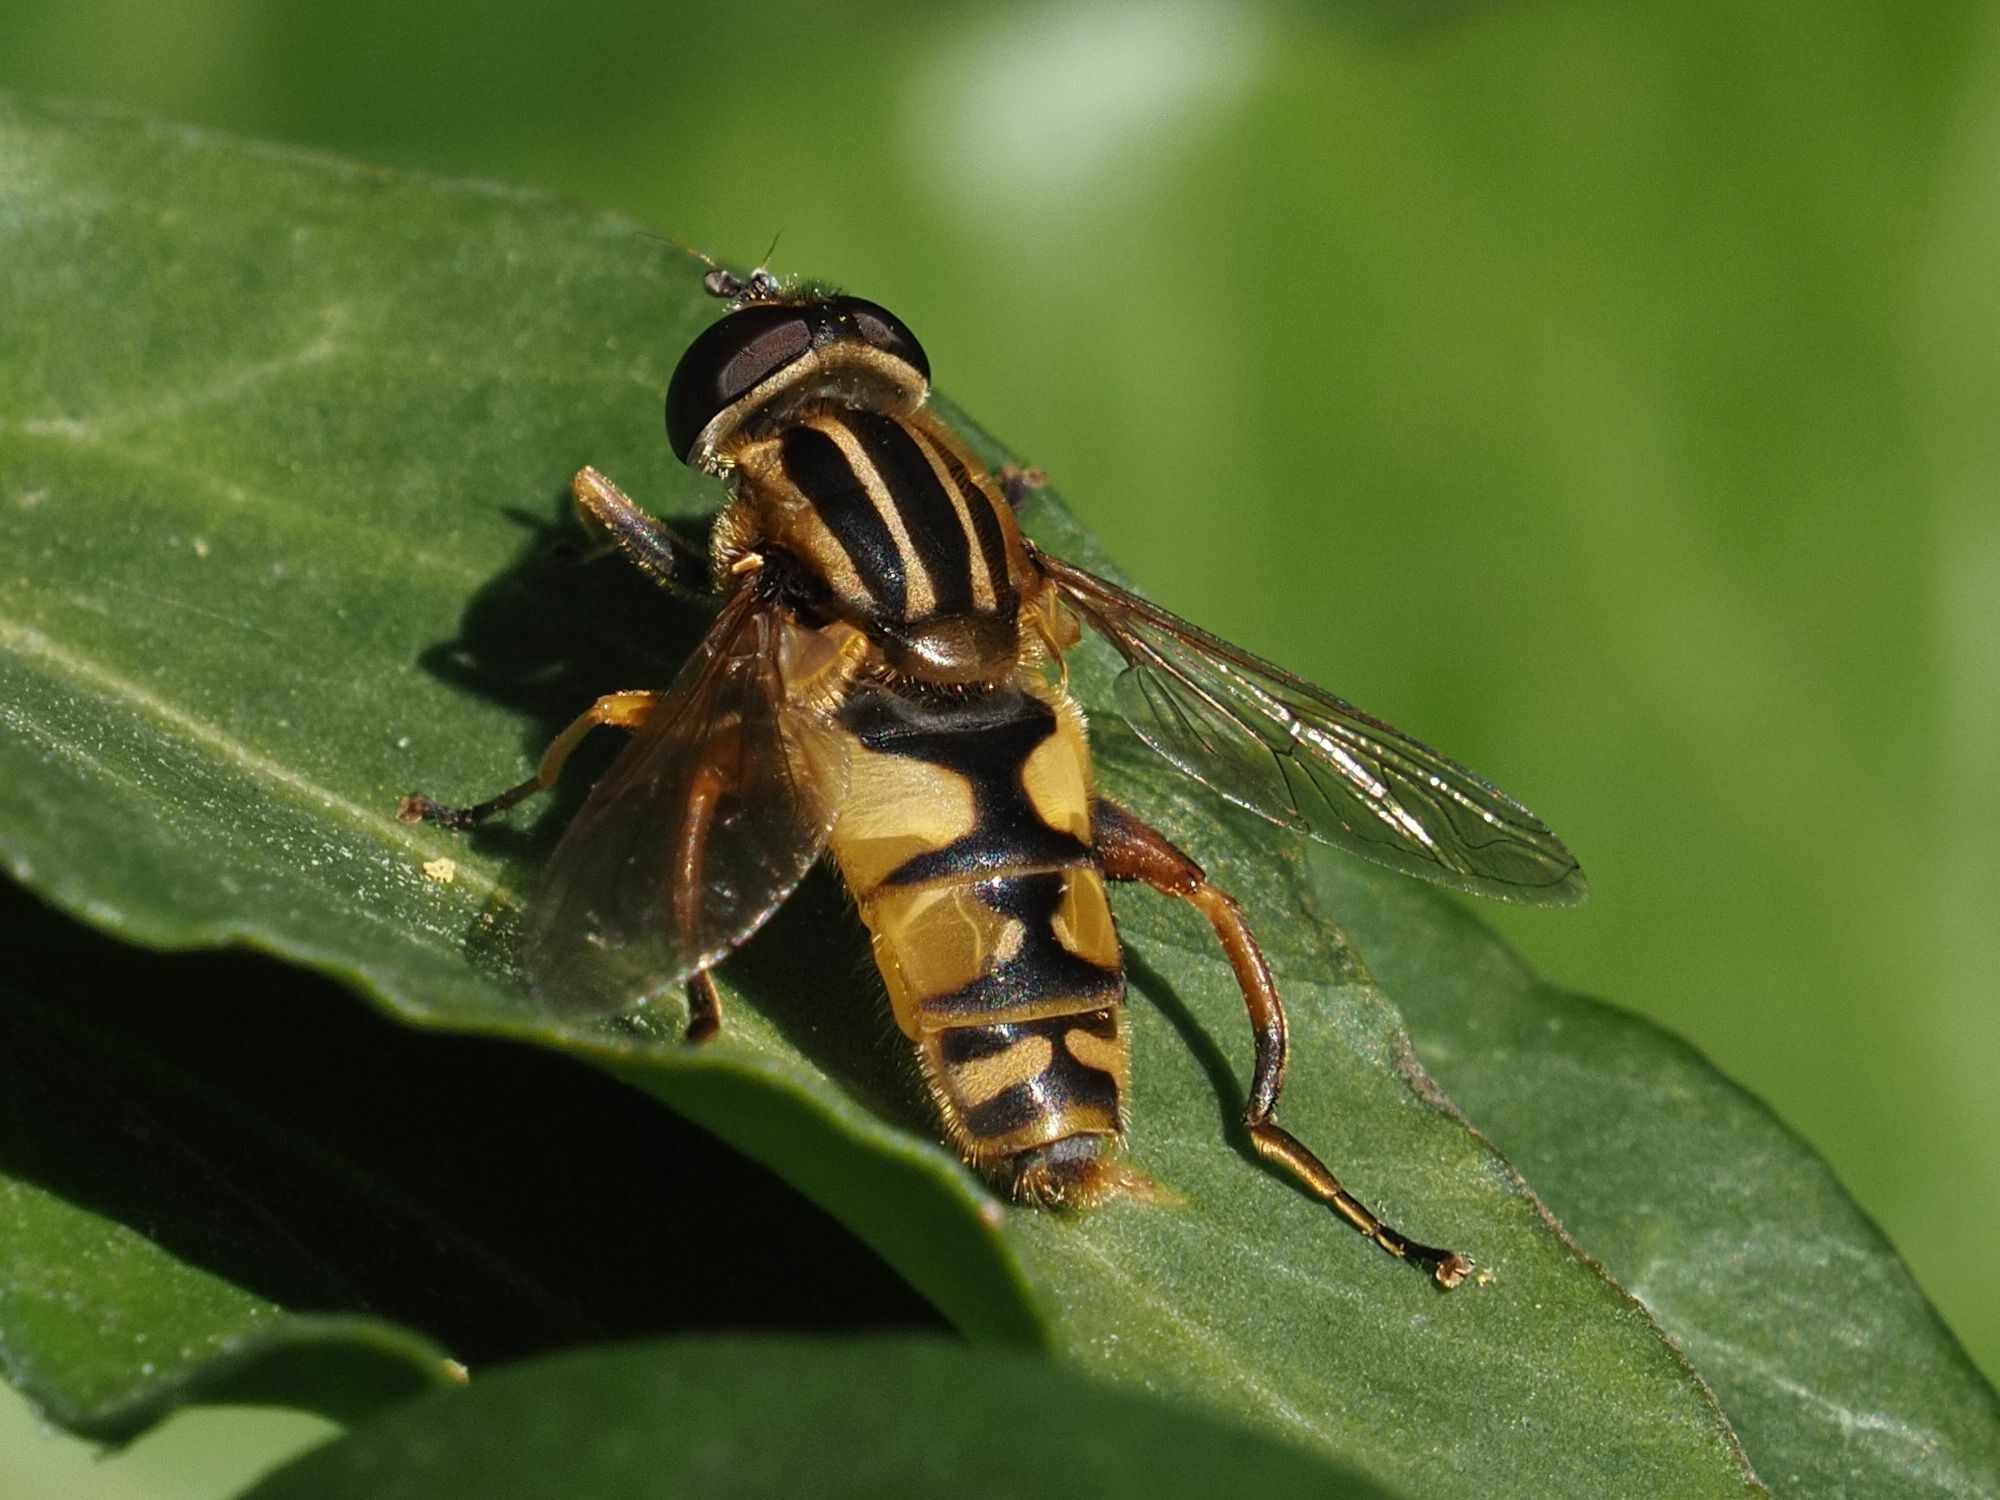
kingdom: Animalia
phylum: Arthropoda
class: Insecta
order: Diptera
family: Syrphidae
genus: Helophilus
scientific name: Helophilus pendulus
